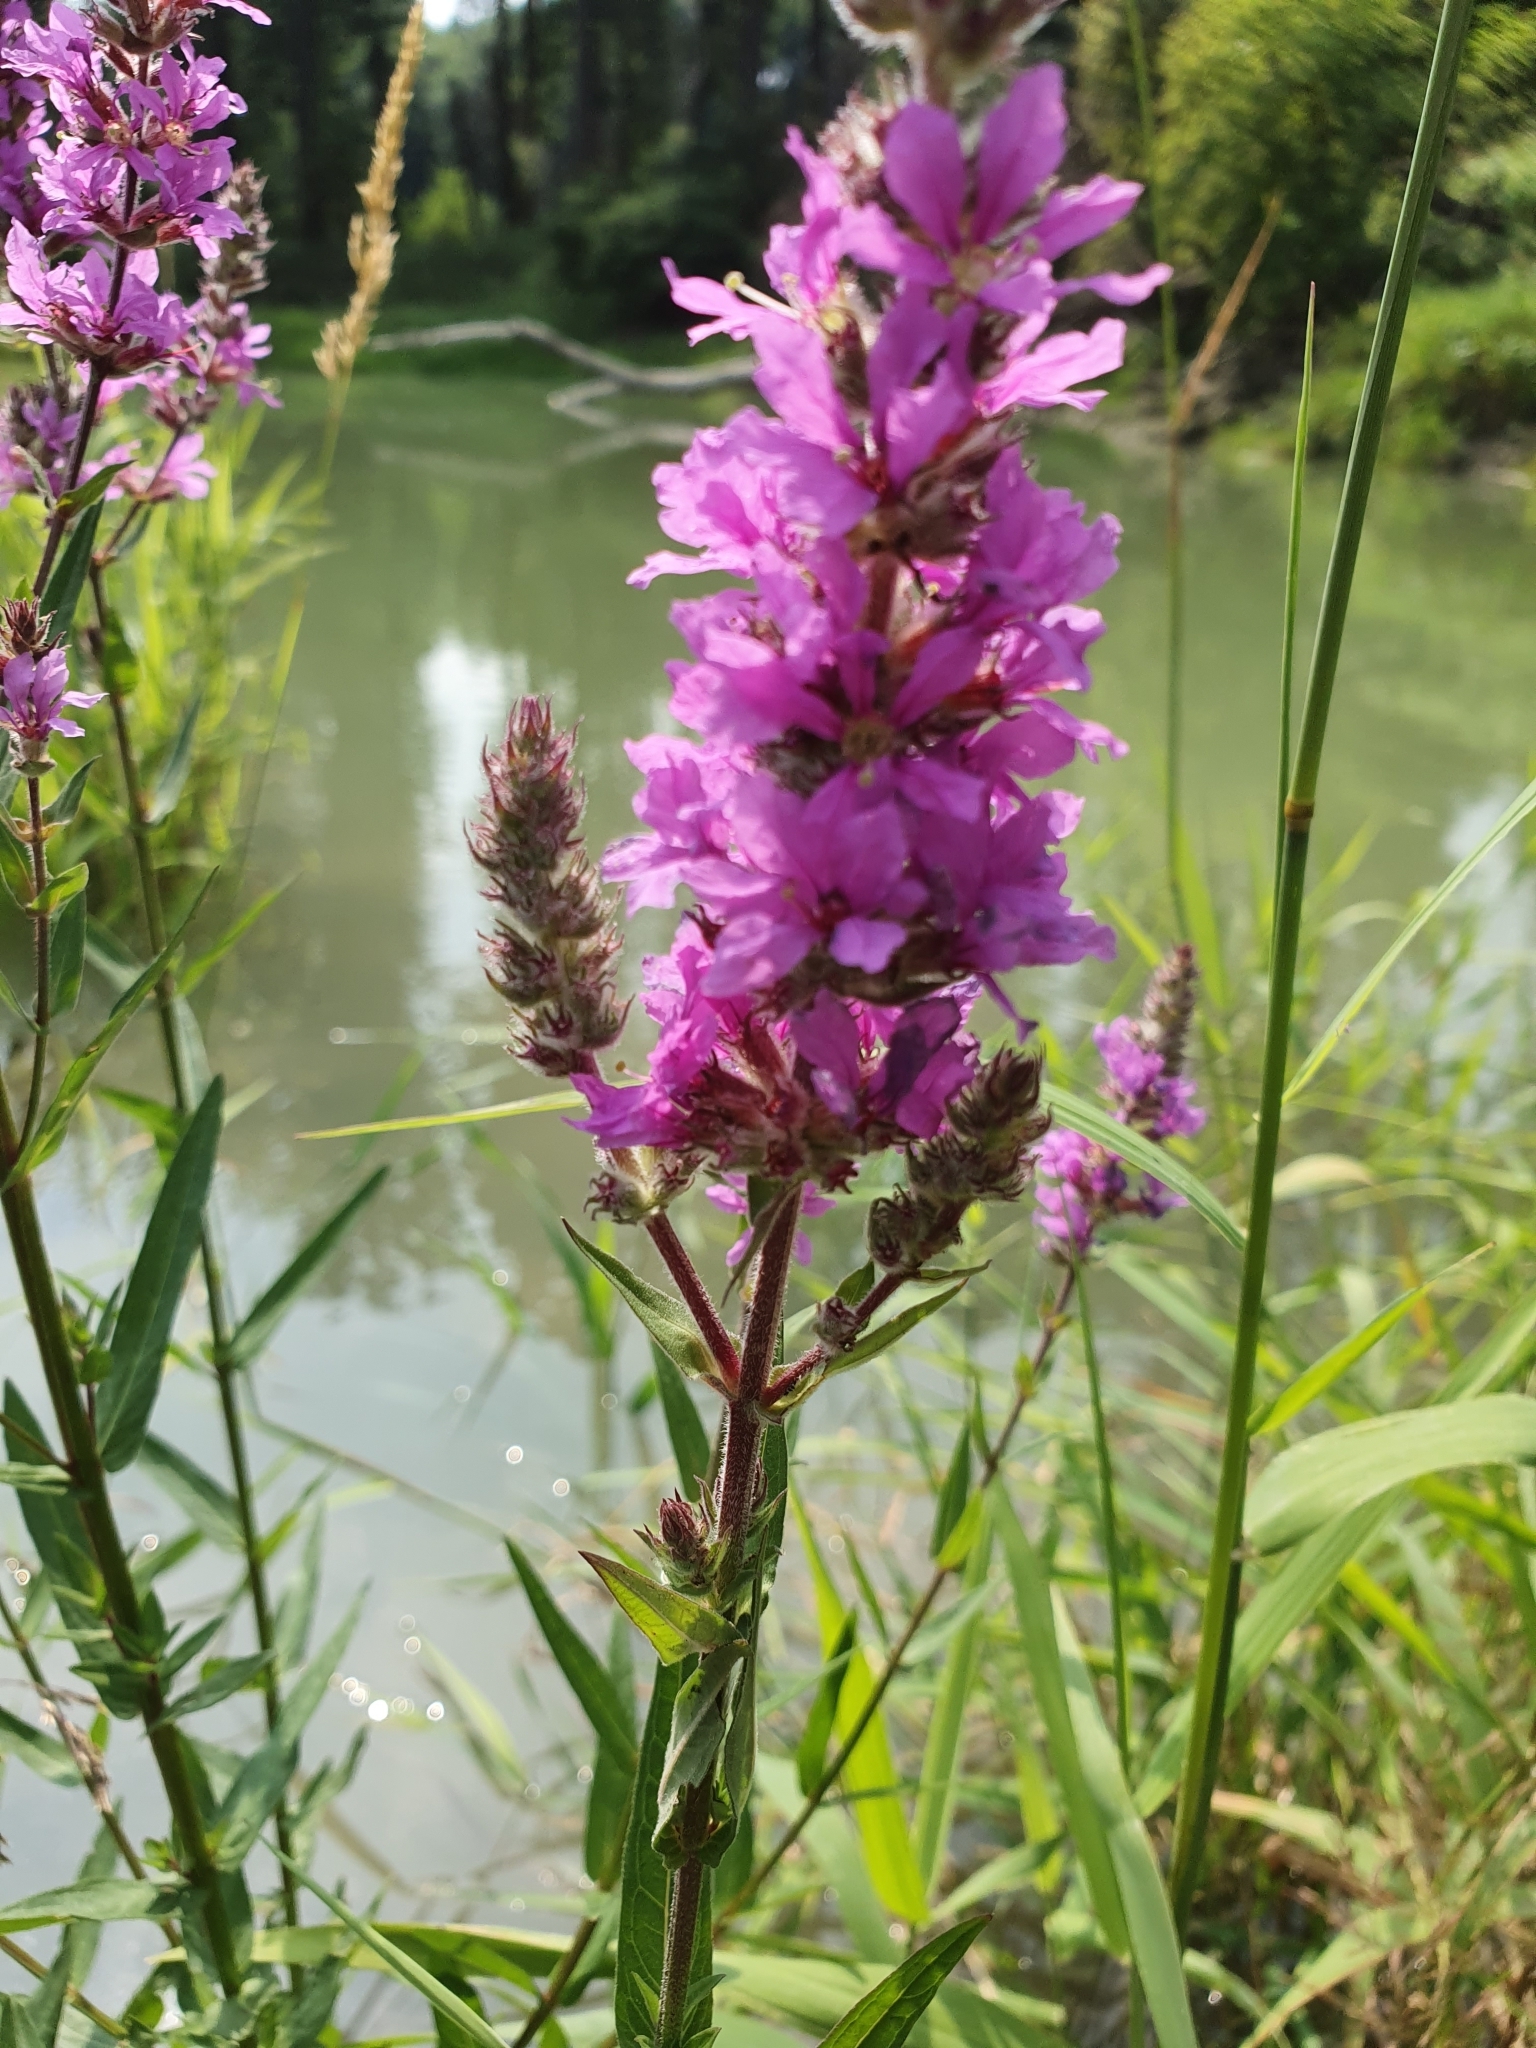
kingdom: Plantae
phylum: Tracheophyta
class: Magnoliopsida
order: Myrtales
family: Lythraceae
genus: Lythrum
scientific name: Lythrum salicaria
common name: Purple loosestrife
